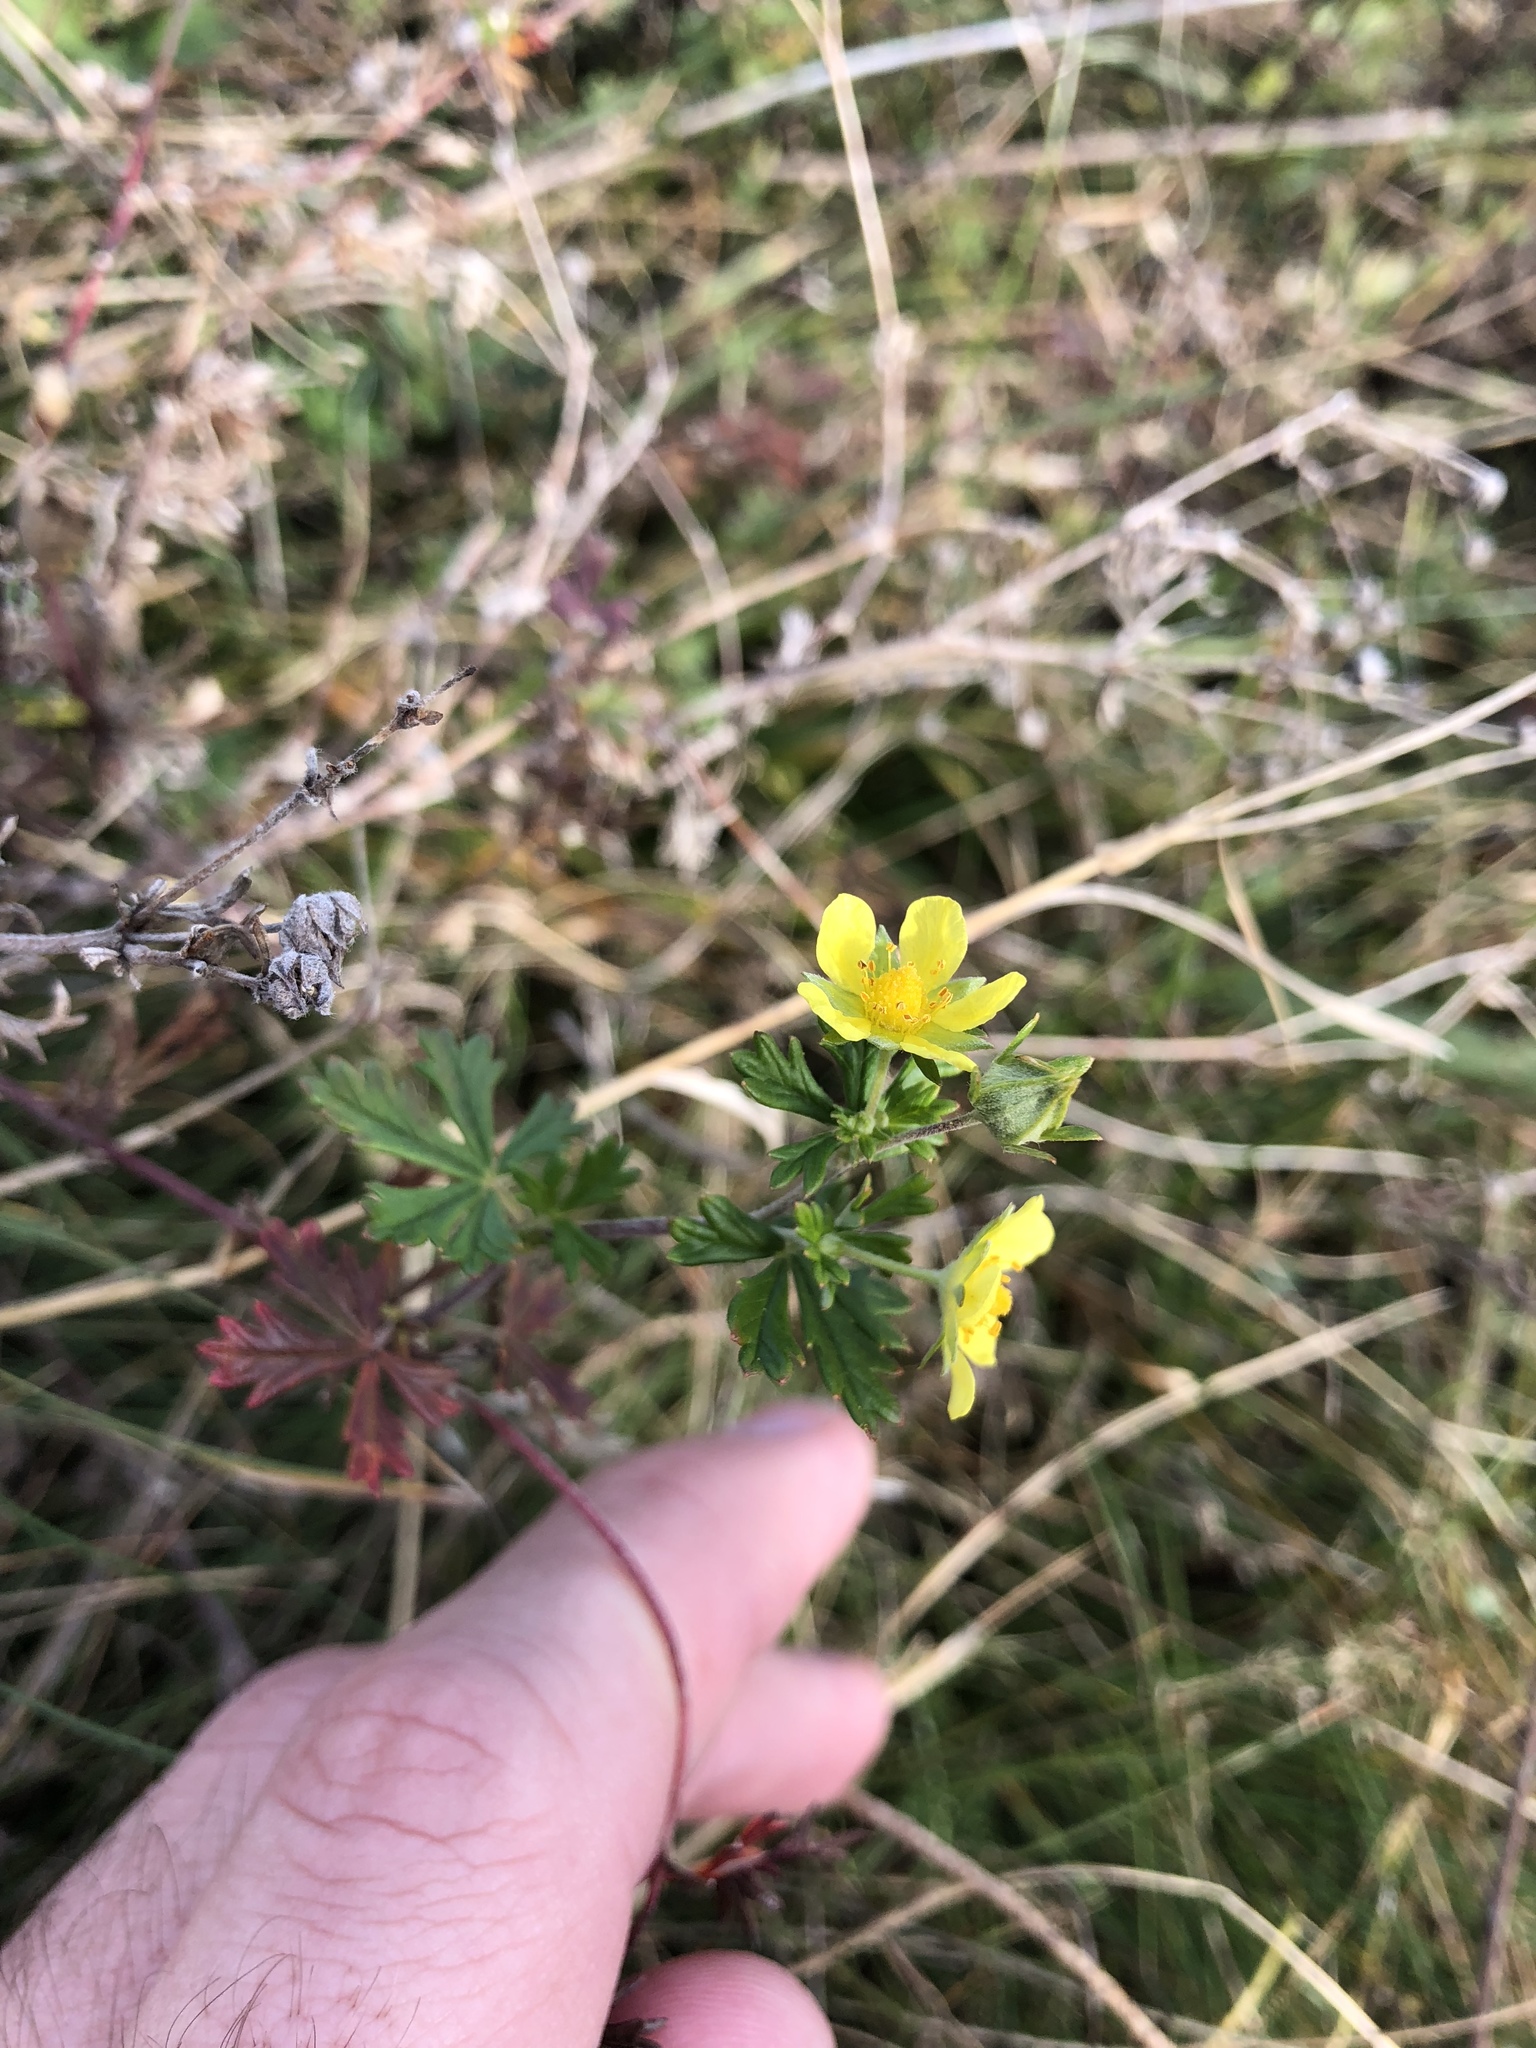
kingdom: Plantae
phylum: Tracheophyta
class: Magnoliopsida
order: Rosales
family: Rosaceae
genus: Potentilla
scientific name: Potentilla argentea
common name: Hoary cinquefoil
